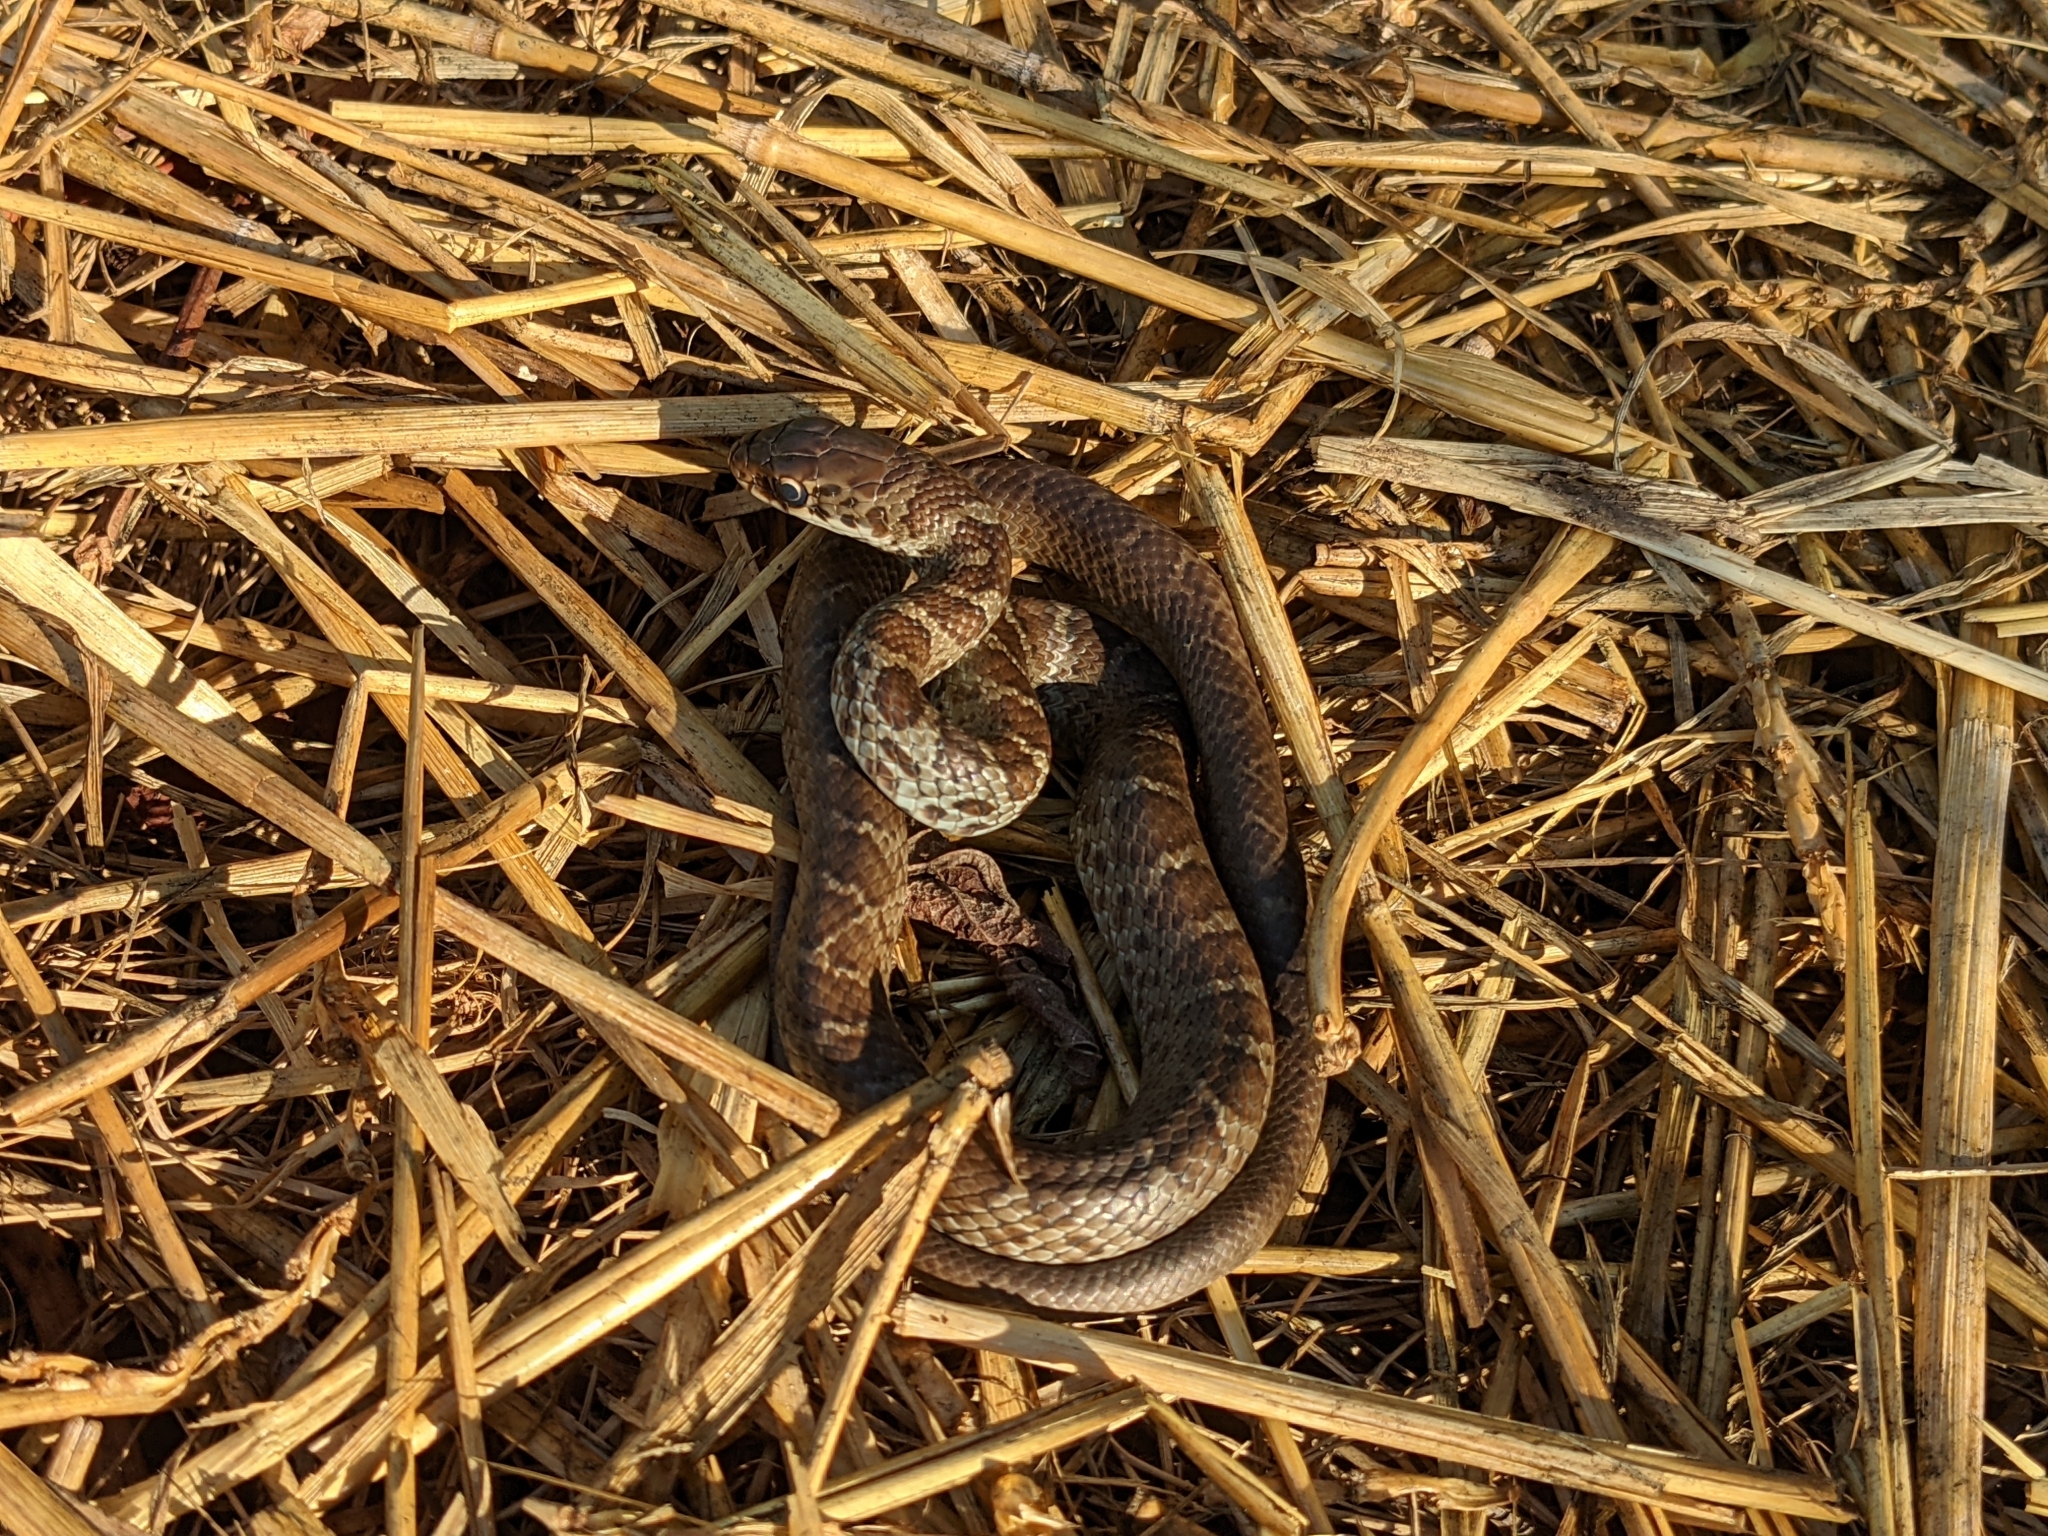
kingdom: Animalia
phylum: Chordata
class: Squamata
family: Colubridae
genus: Coluber
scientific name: Coluber constrictor
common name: Eastern racer
